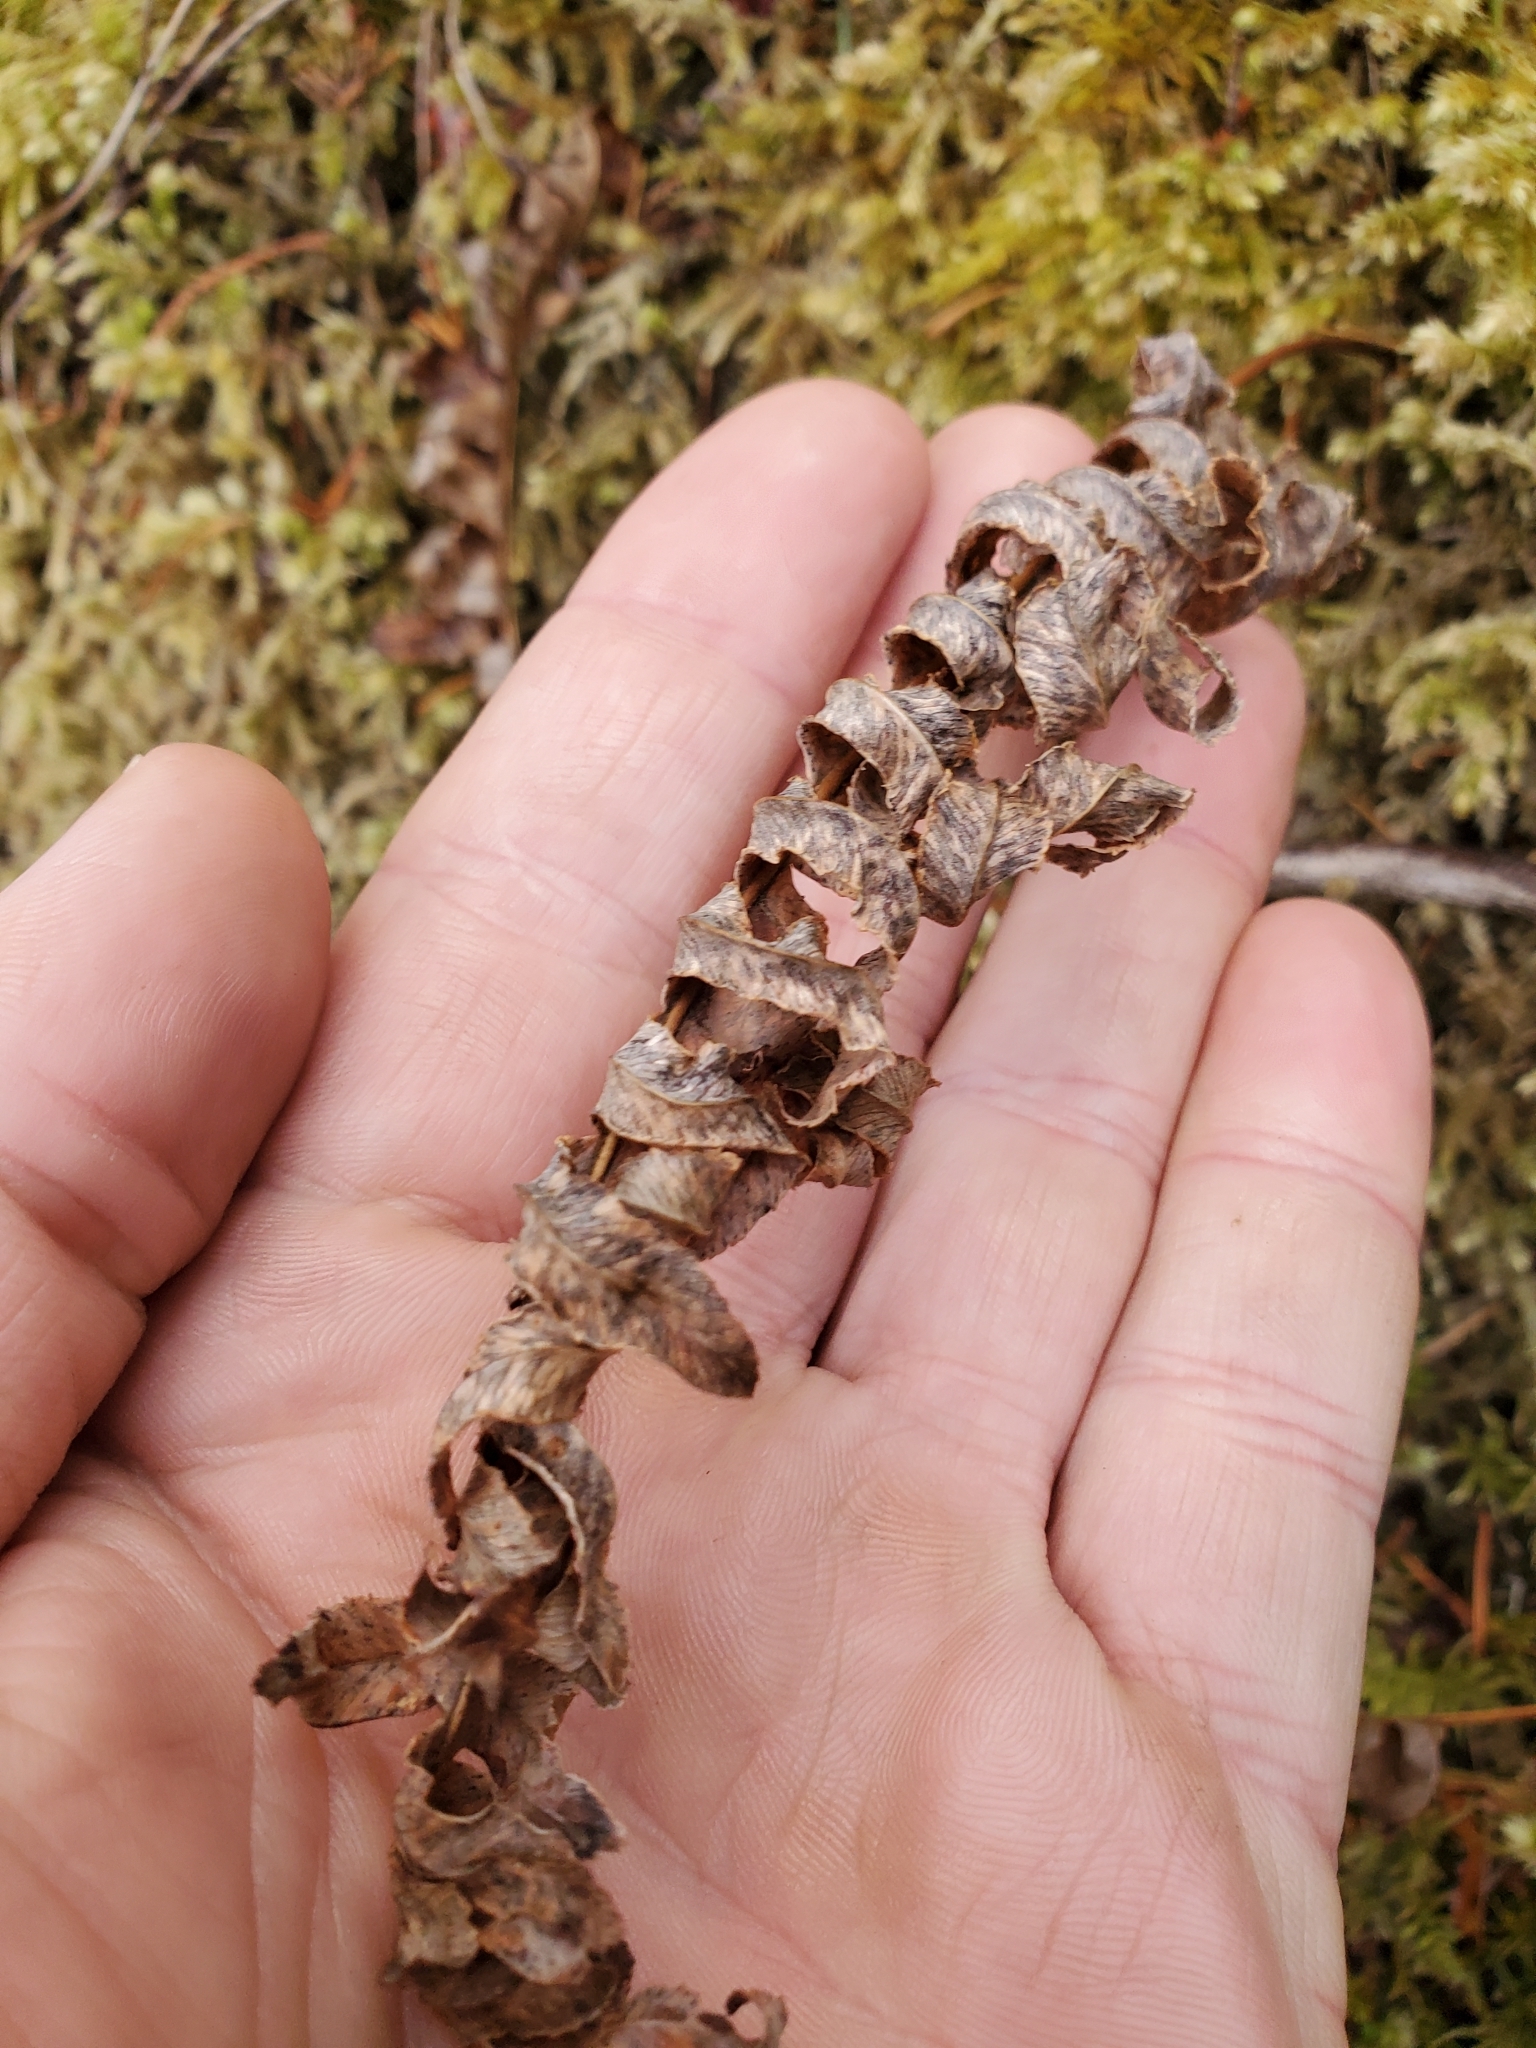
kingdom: Plantae
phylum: Tracheophyta
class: Polypodiopsida
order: Polypodiales
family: Polypodiaceae
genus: Polypodium
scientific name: Polypodium glycyrrhiza
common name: Licorice fern
